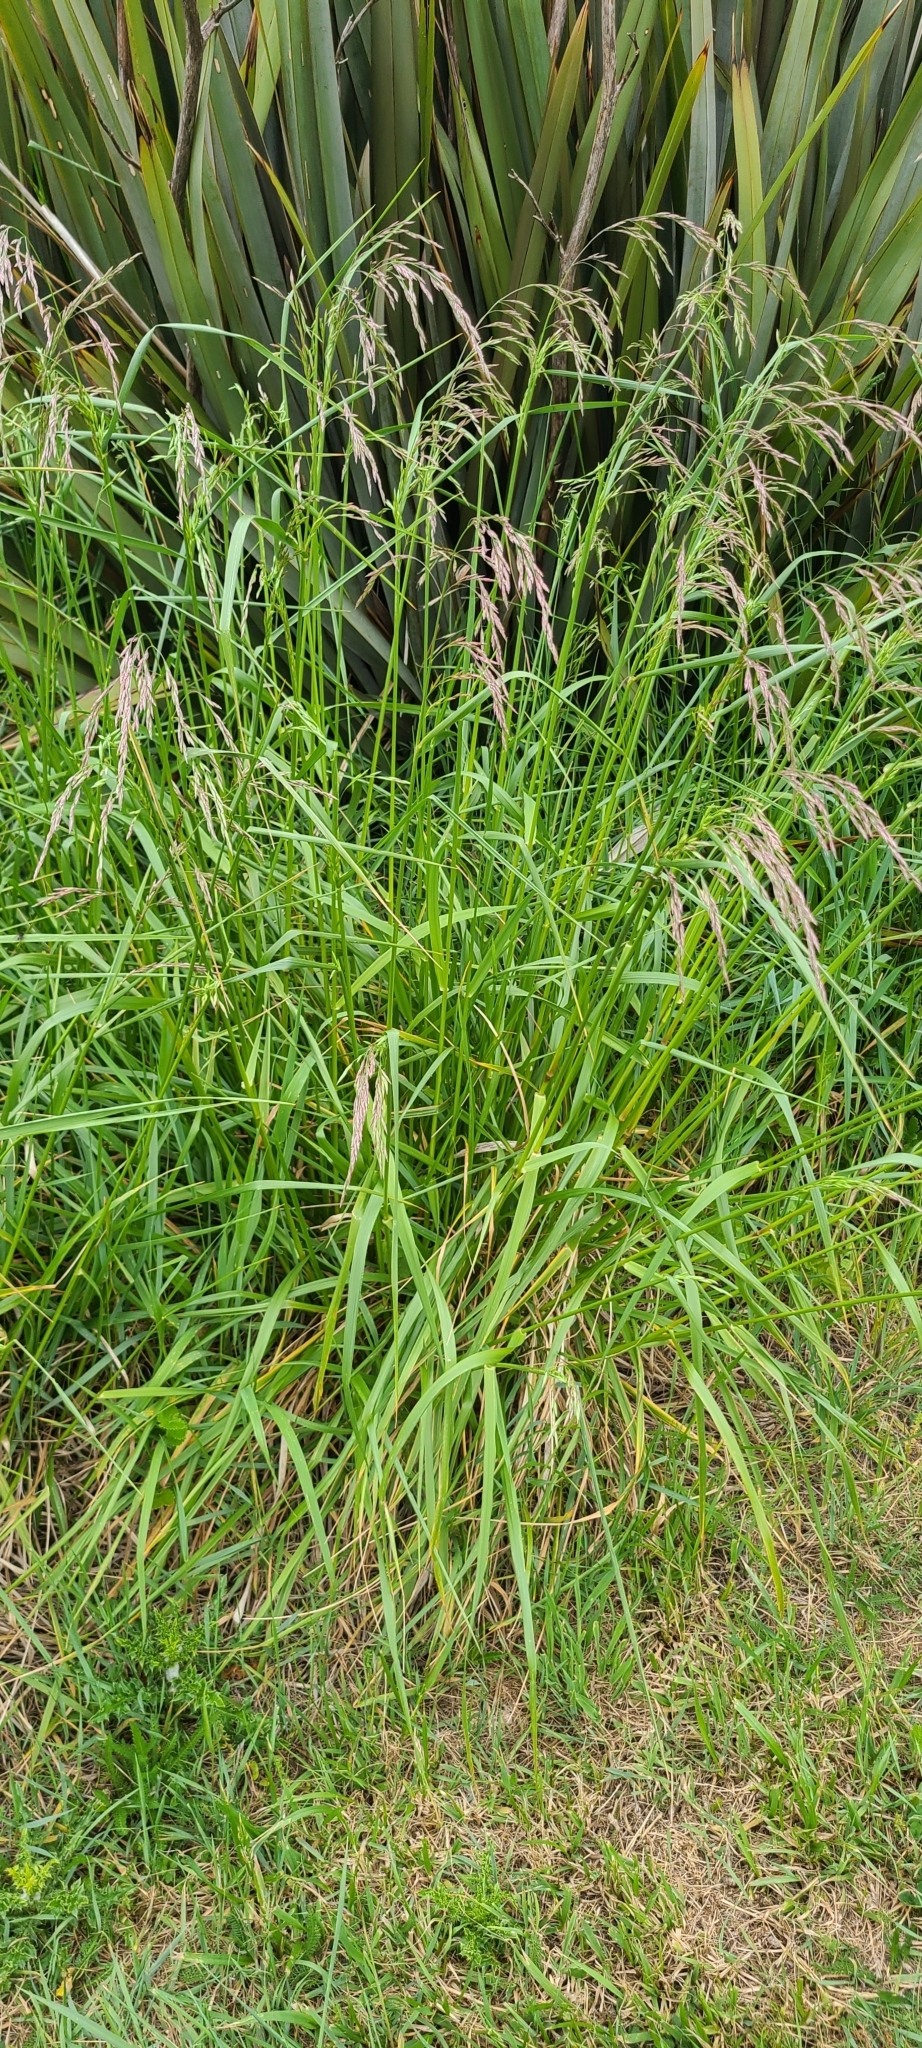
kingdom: Plantae
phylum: Tracheophyta
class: Liliopsida
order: Poales
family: Poaceae
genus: Lolium
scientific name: Lolium arundinaceum
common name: Reed fescue
